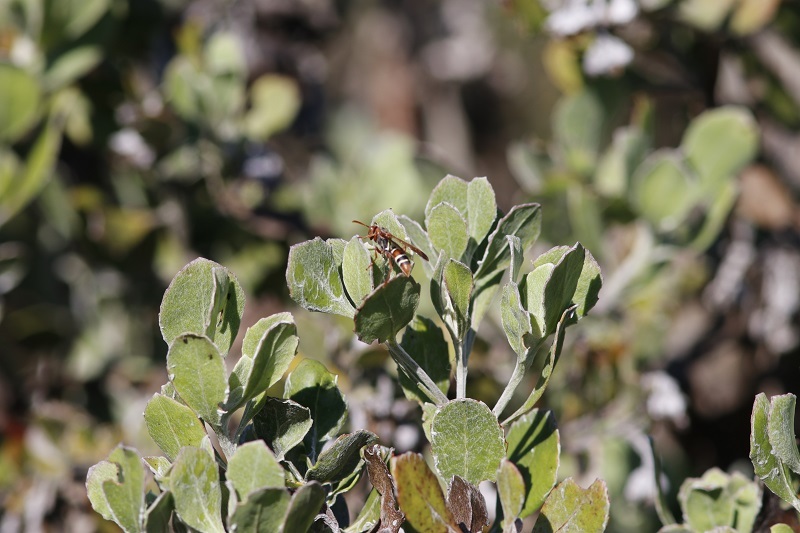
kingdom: Animalia
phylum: Arthropoda
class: Insecta
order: Hymenoptera
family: Eumenidae
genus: Polistes
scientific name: Polistes marginalis
